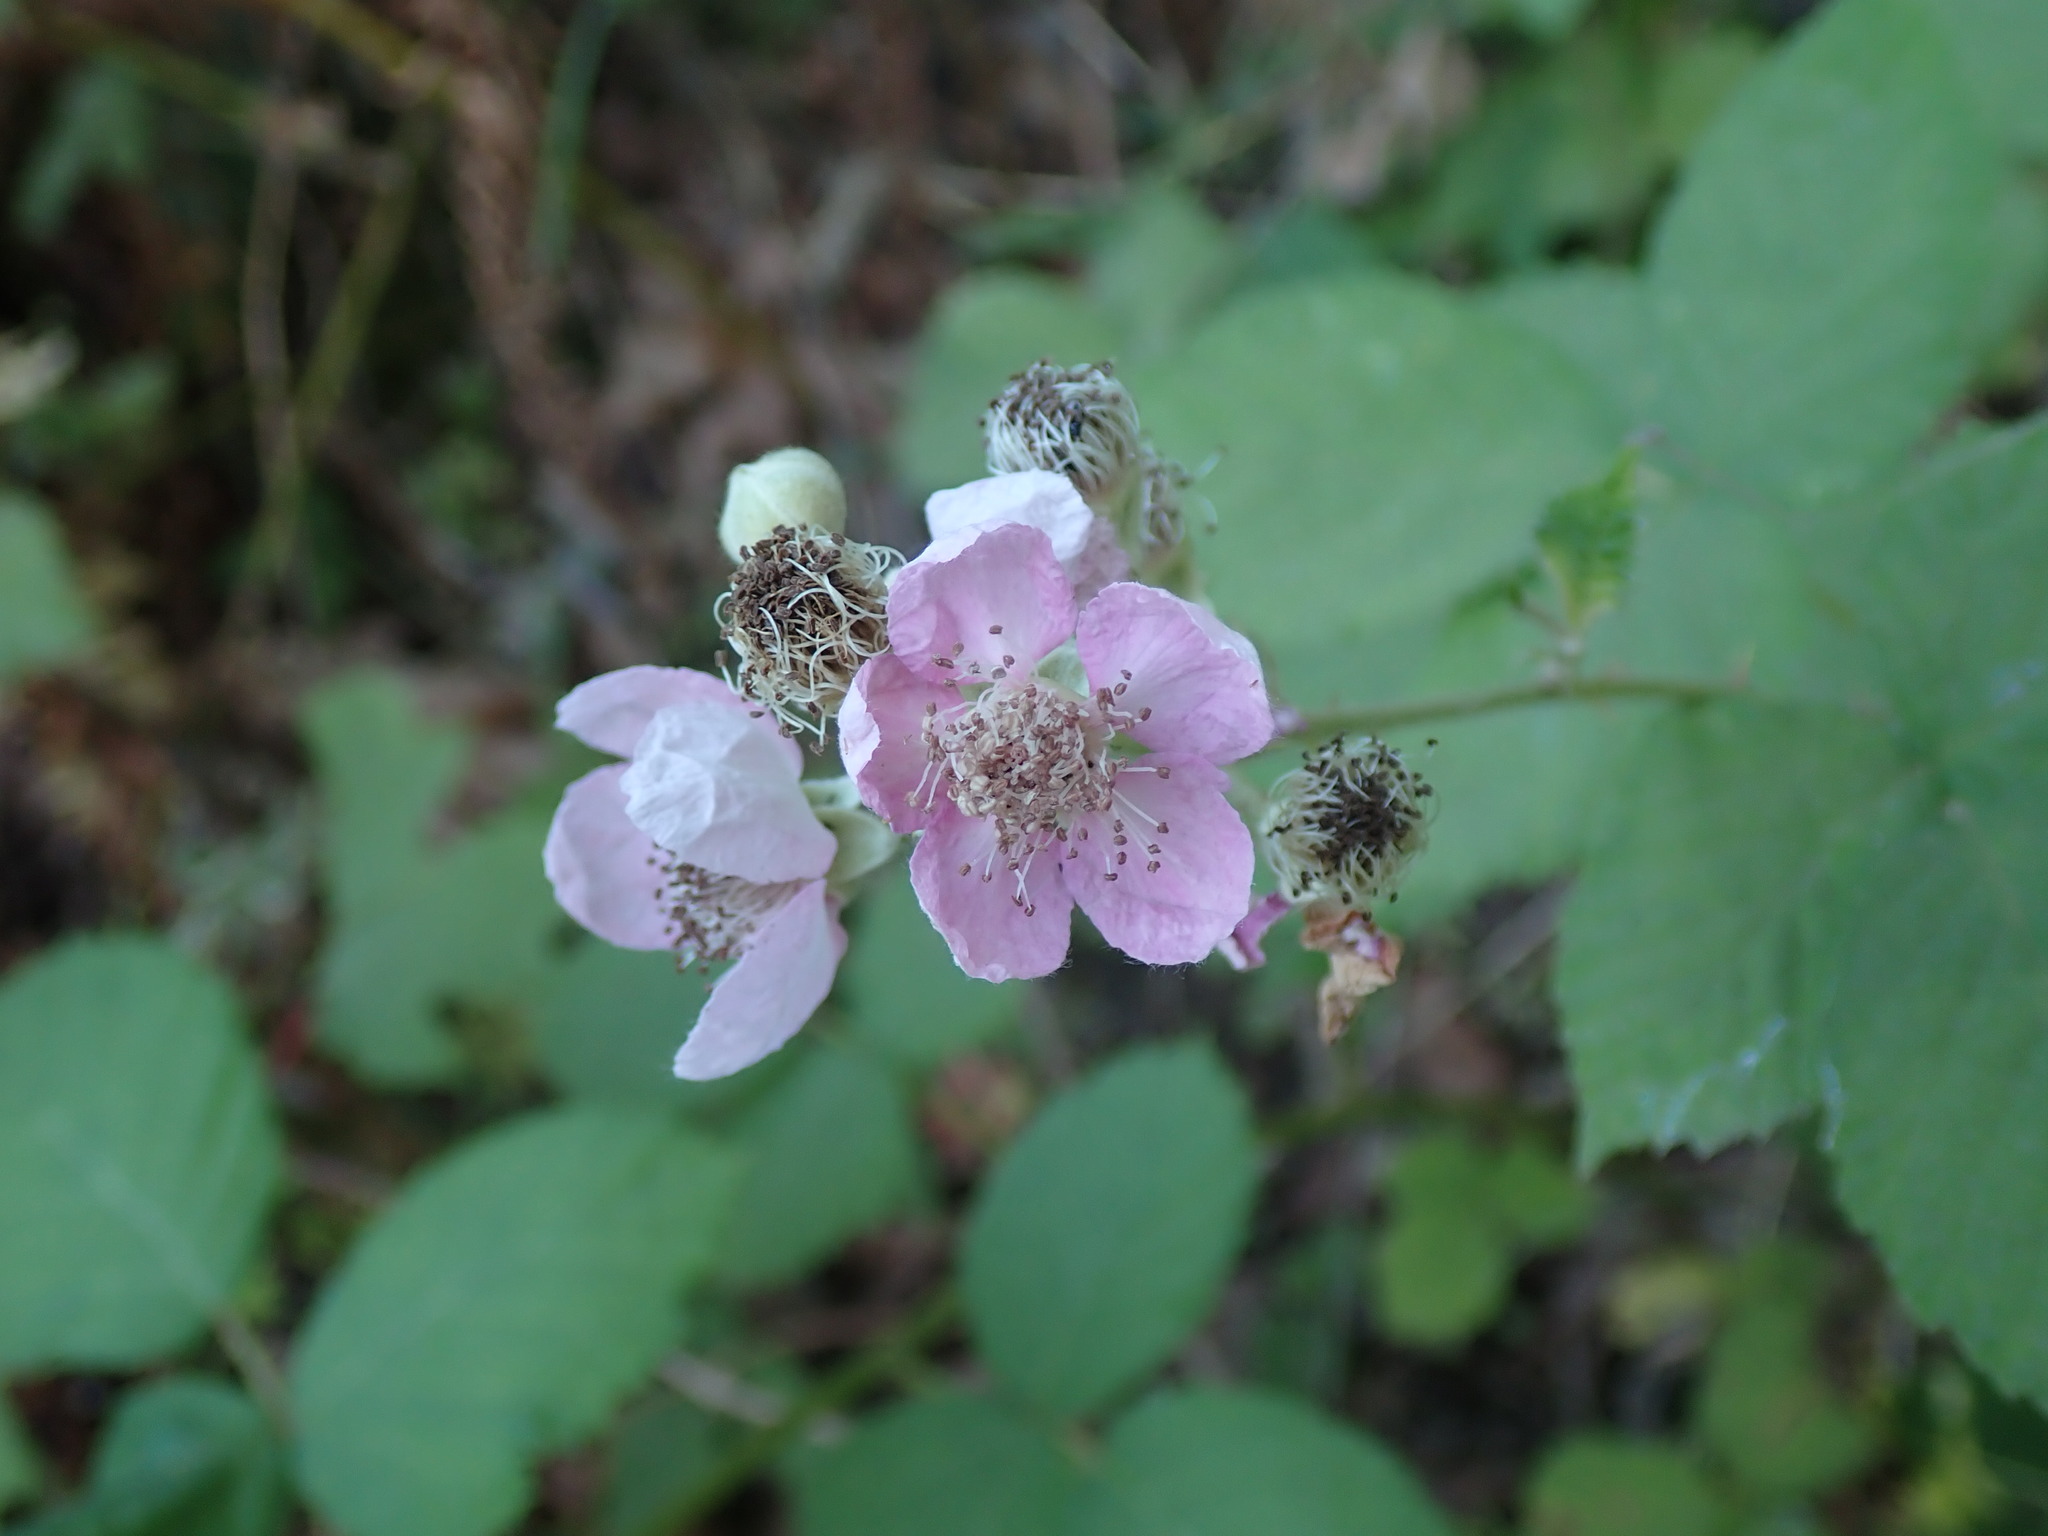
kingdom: Plantae
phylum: Tracheophyta
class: Magnoliopsida
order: Rosales
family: Rosaceae
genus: Rubus
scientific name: Rubus bifrons
